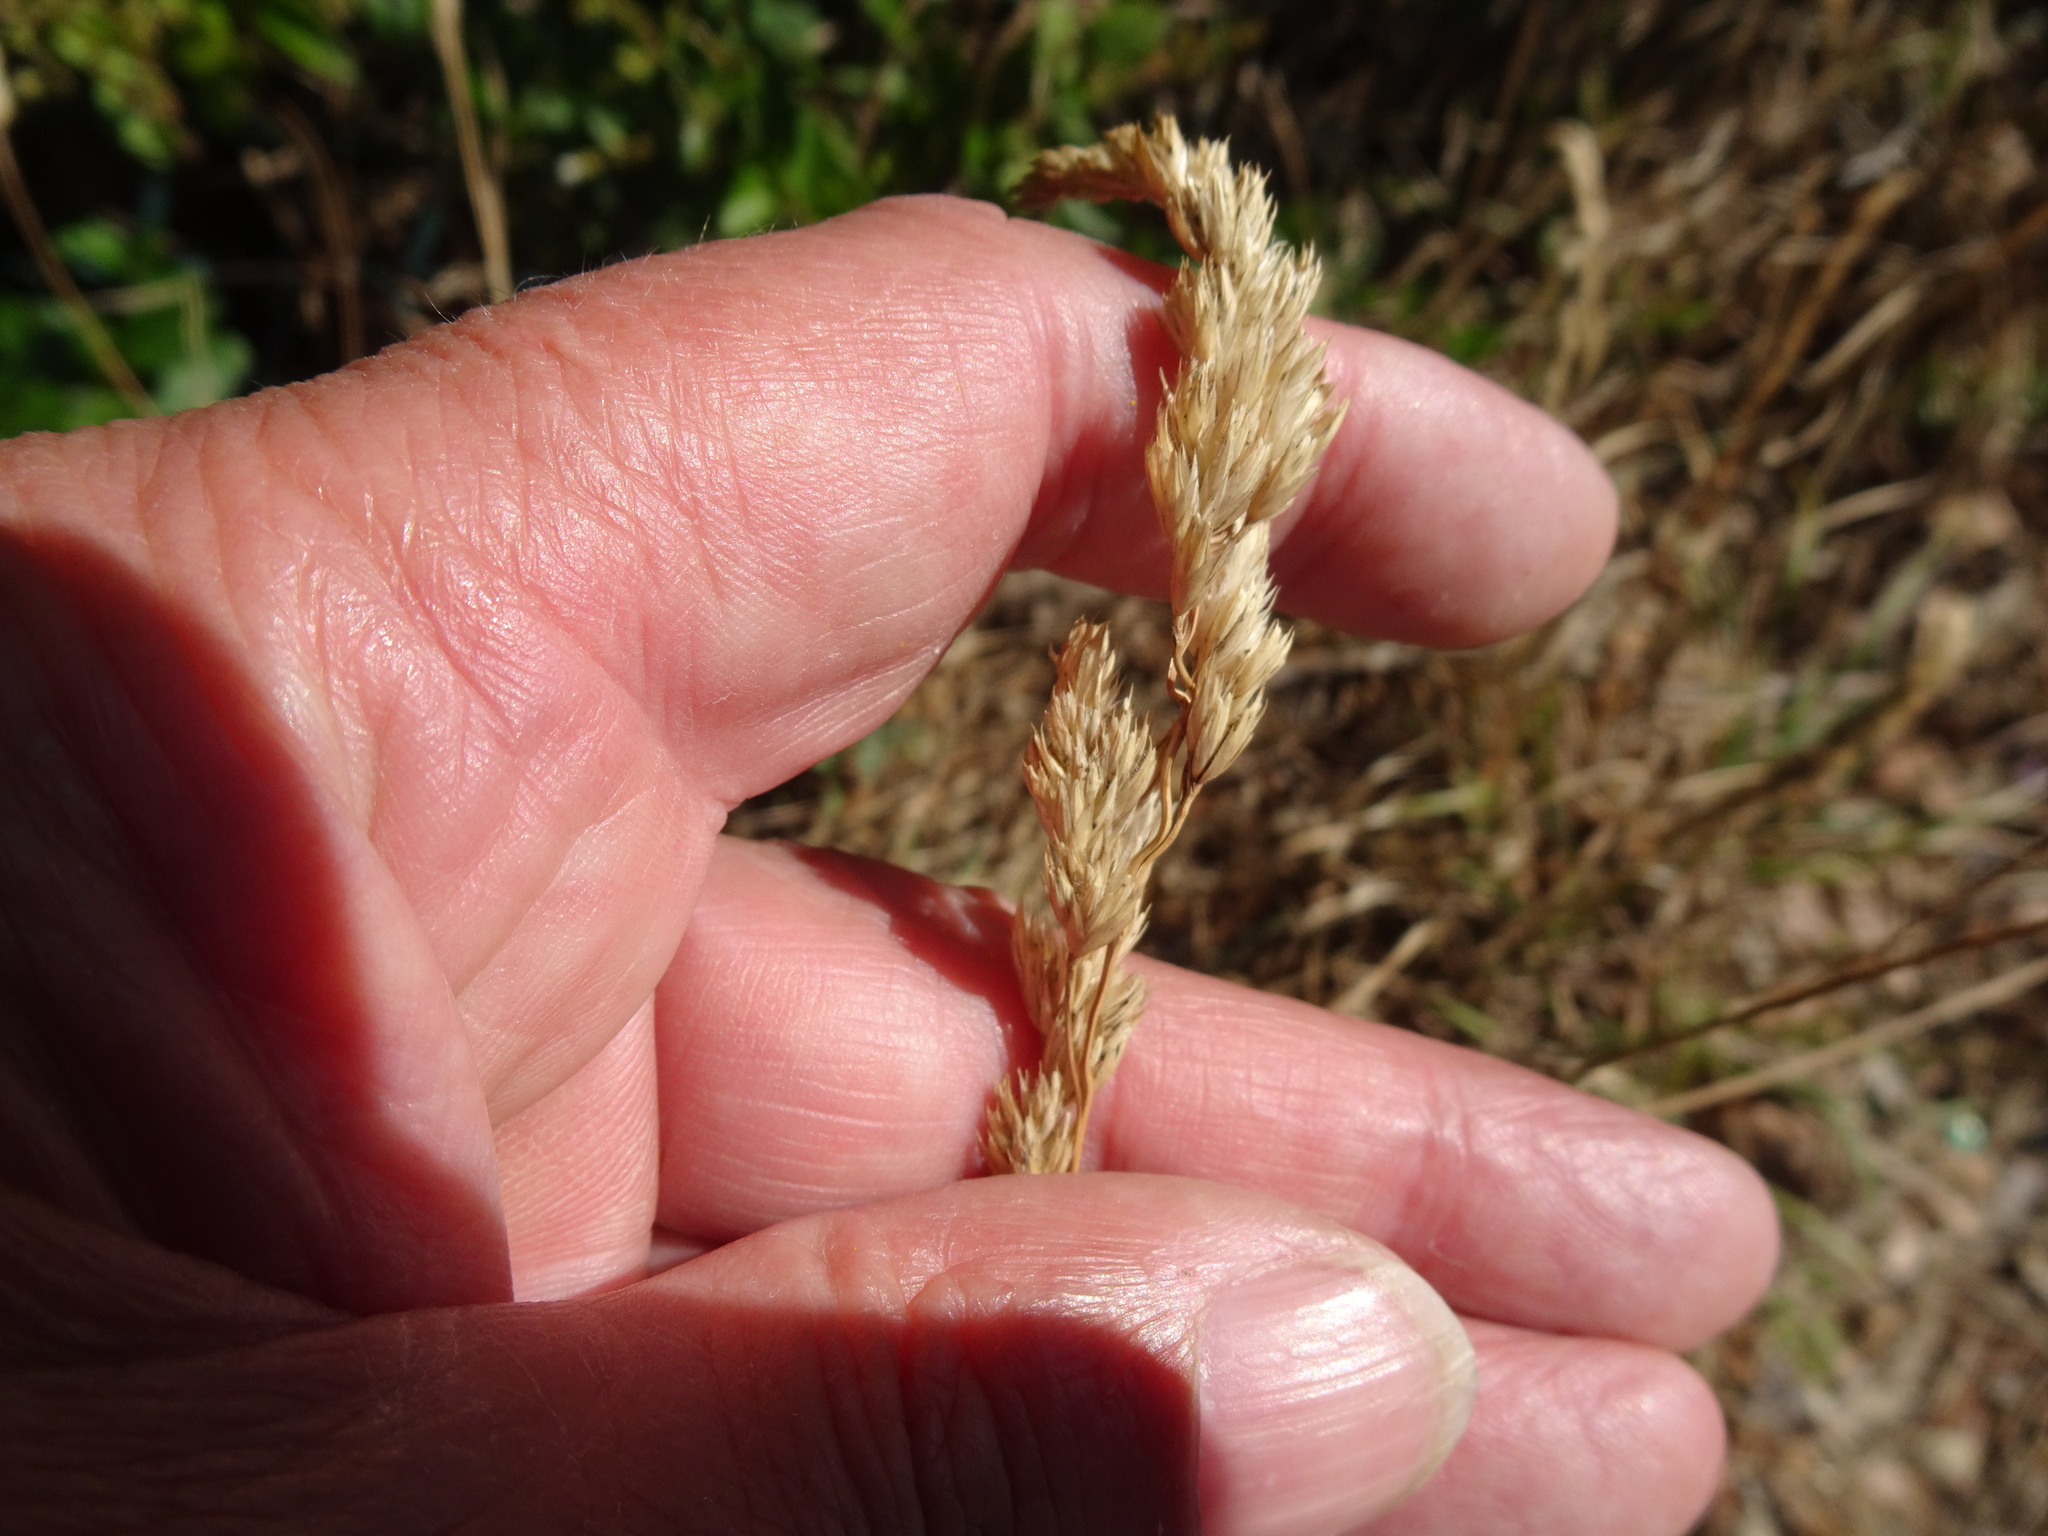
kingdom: Plantae
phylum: Tracheophyta
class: Liliopsida
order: Poales
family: Poaceae
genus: Dactylis
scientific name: Dactylis glomerata
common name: Orchardgrass
